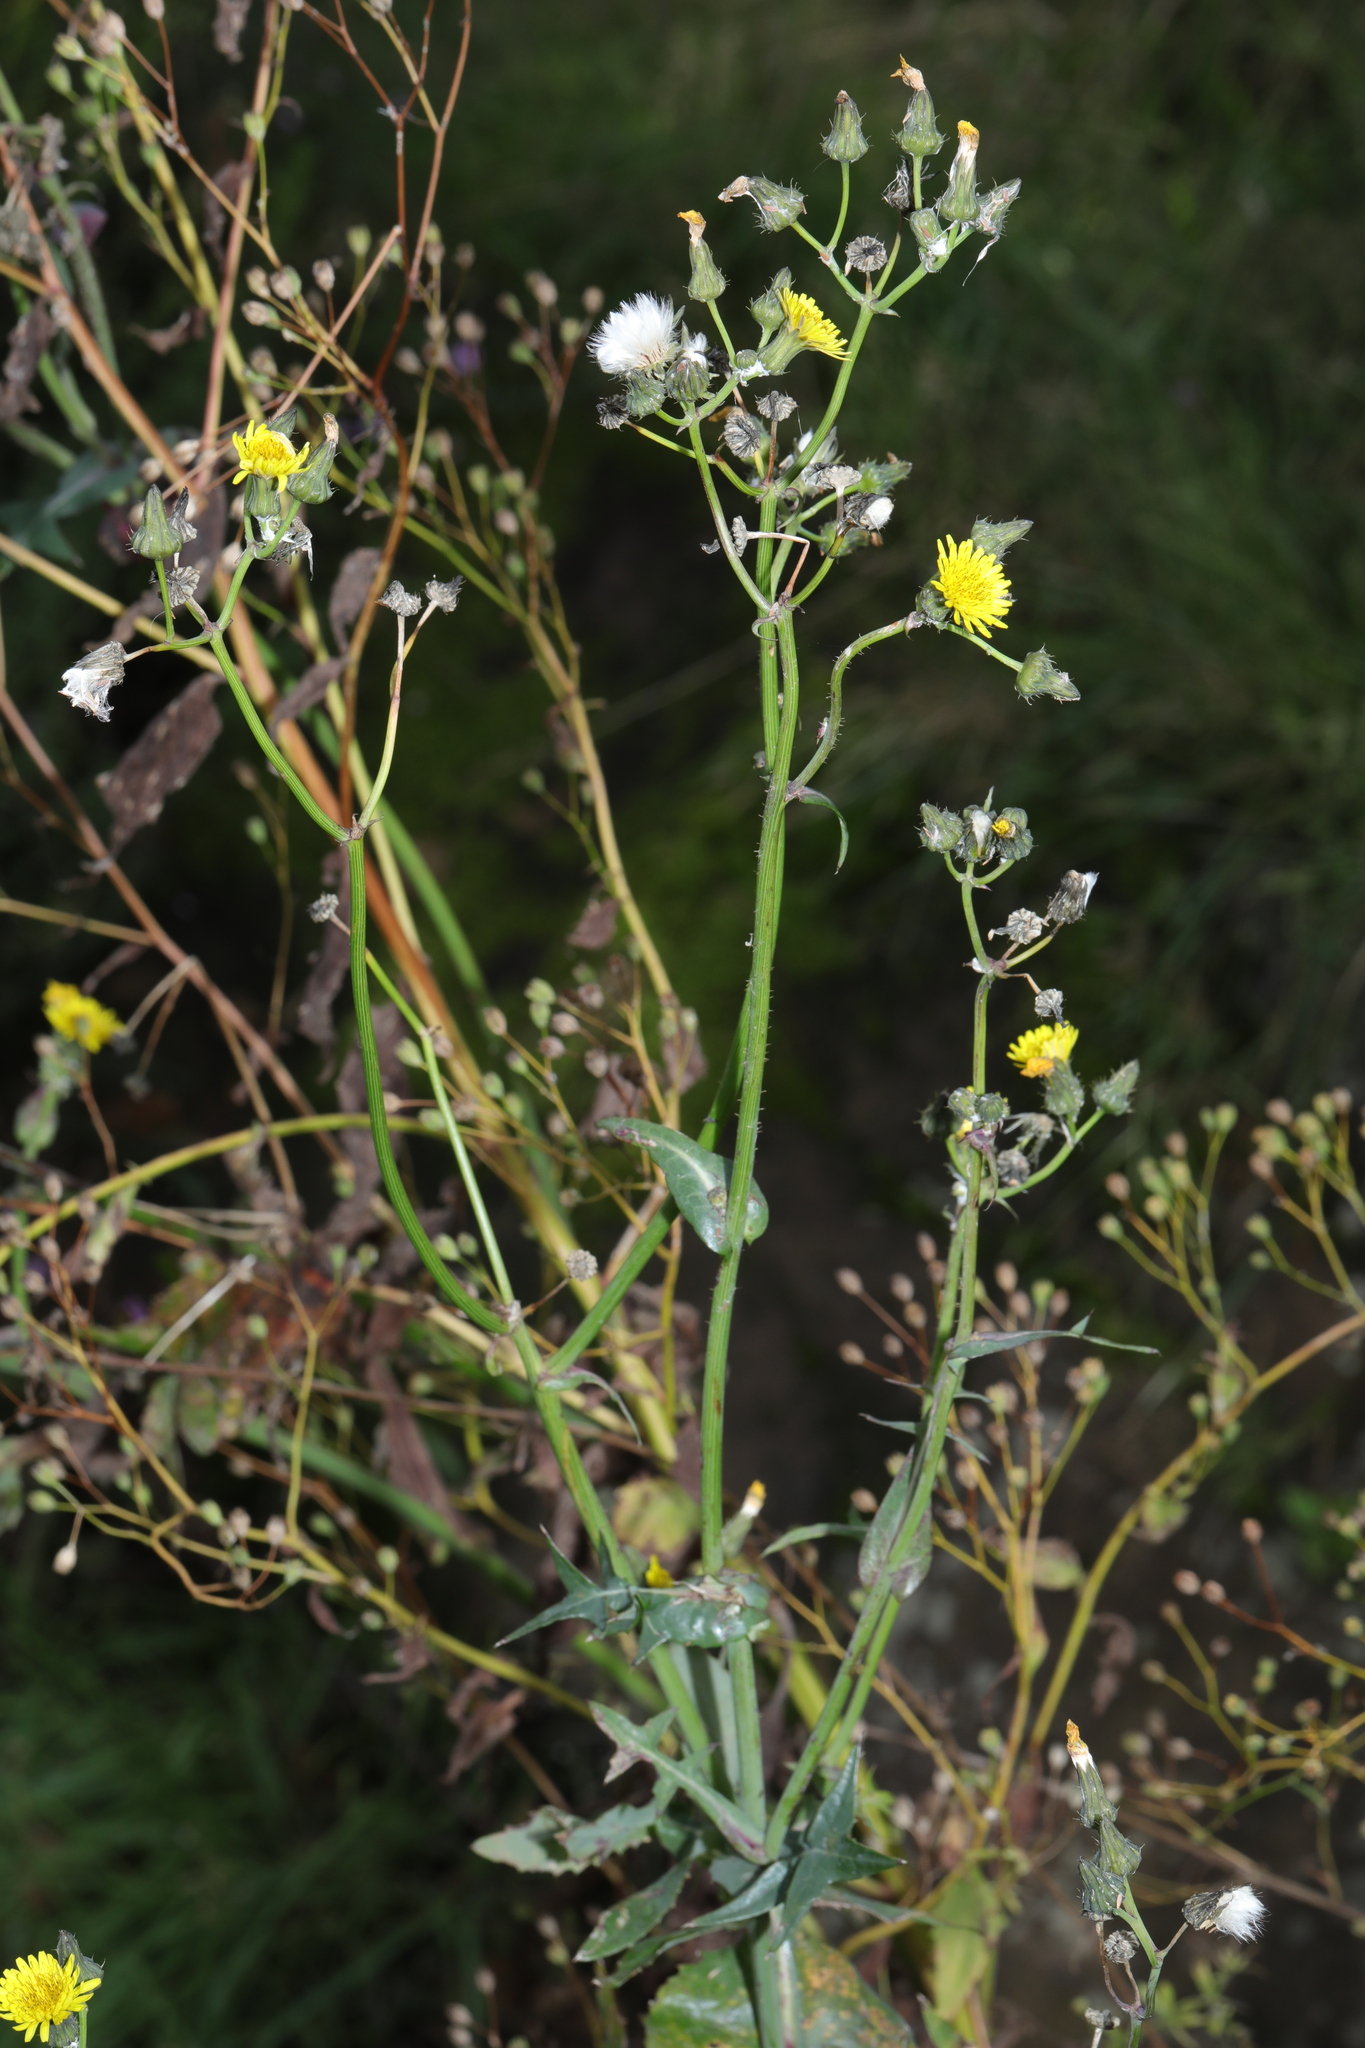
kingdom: Plantae
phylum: Tracheophyta
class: Magnoliopsida
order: Asterales
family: Asteraceae
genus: Sonchus
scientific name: Sonchus oleraceus
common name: Common sowthistle
